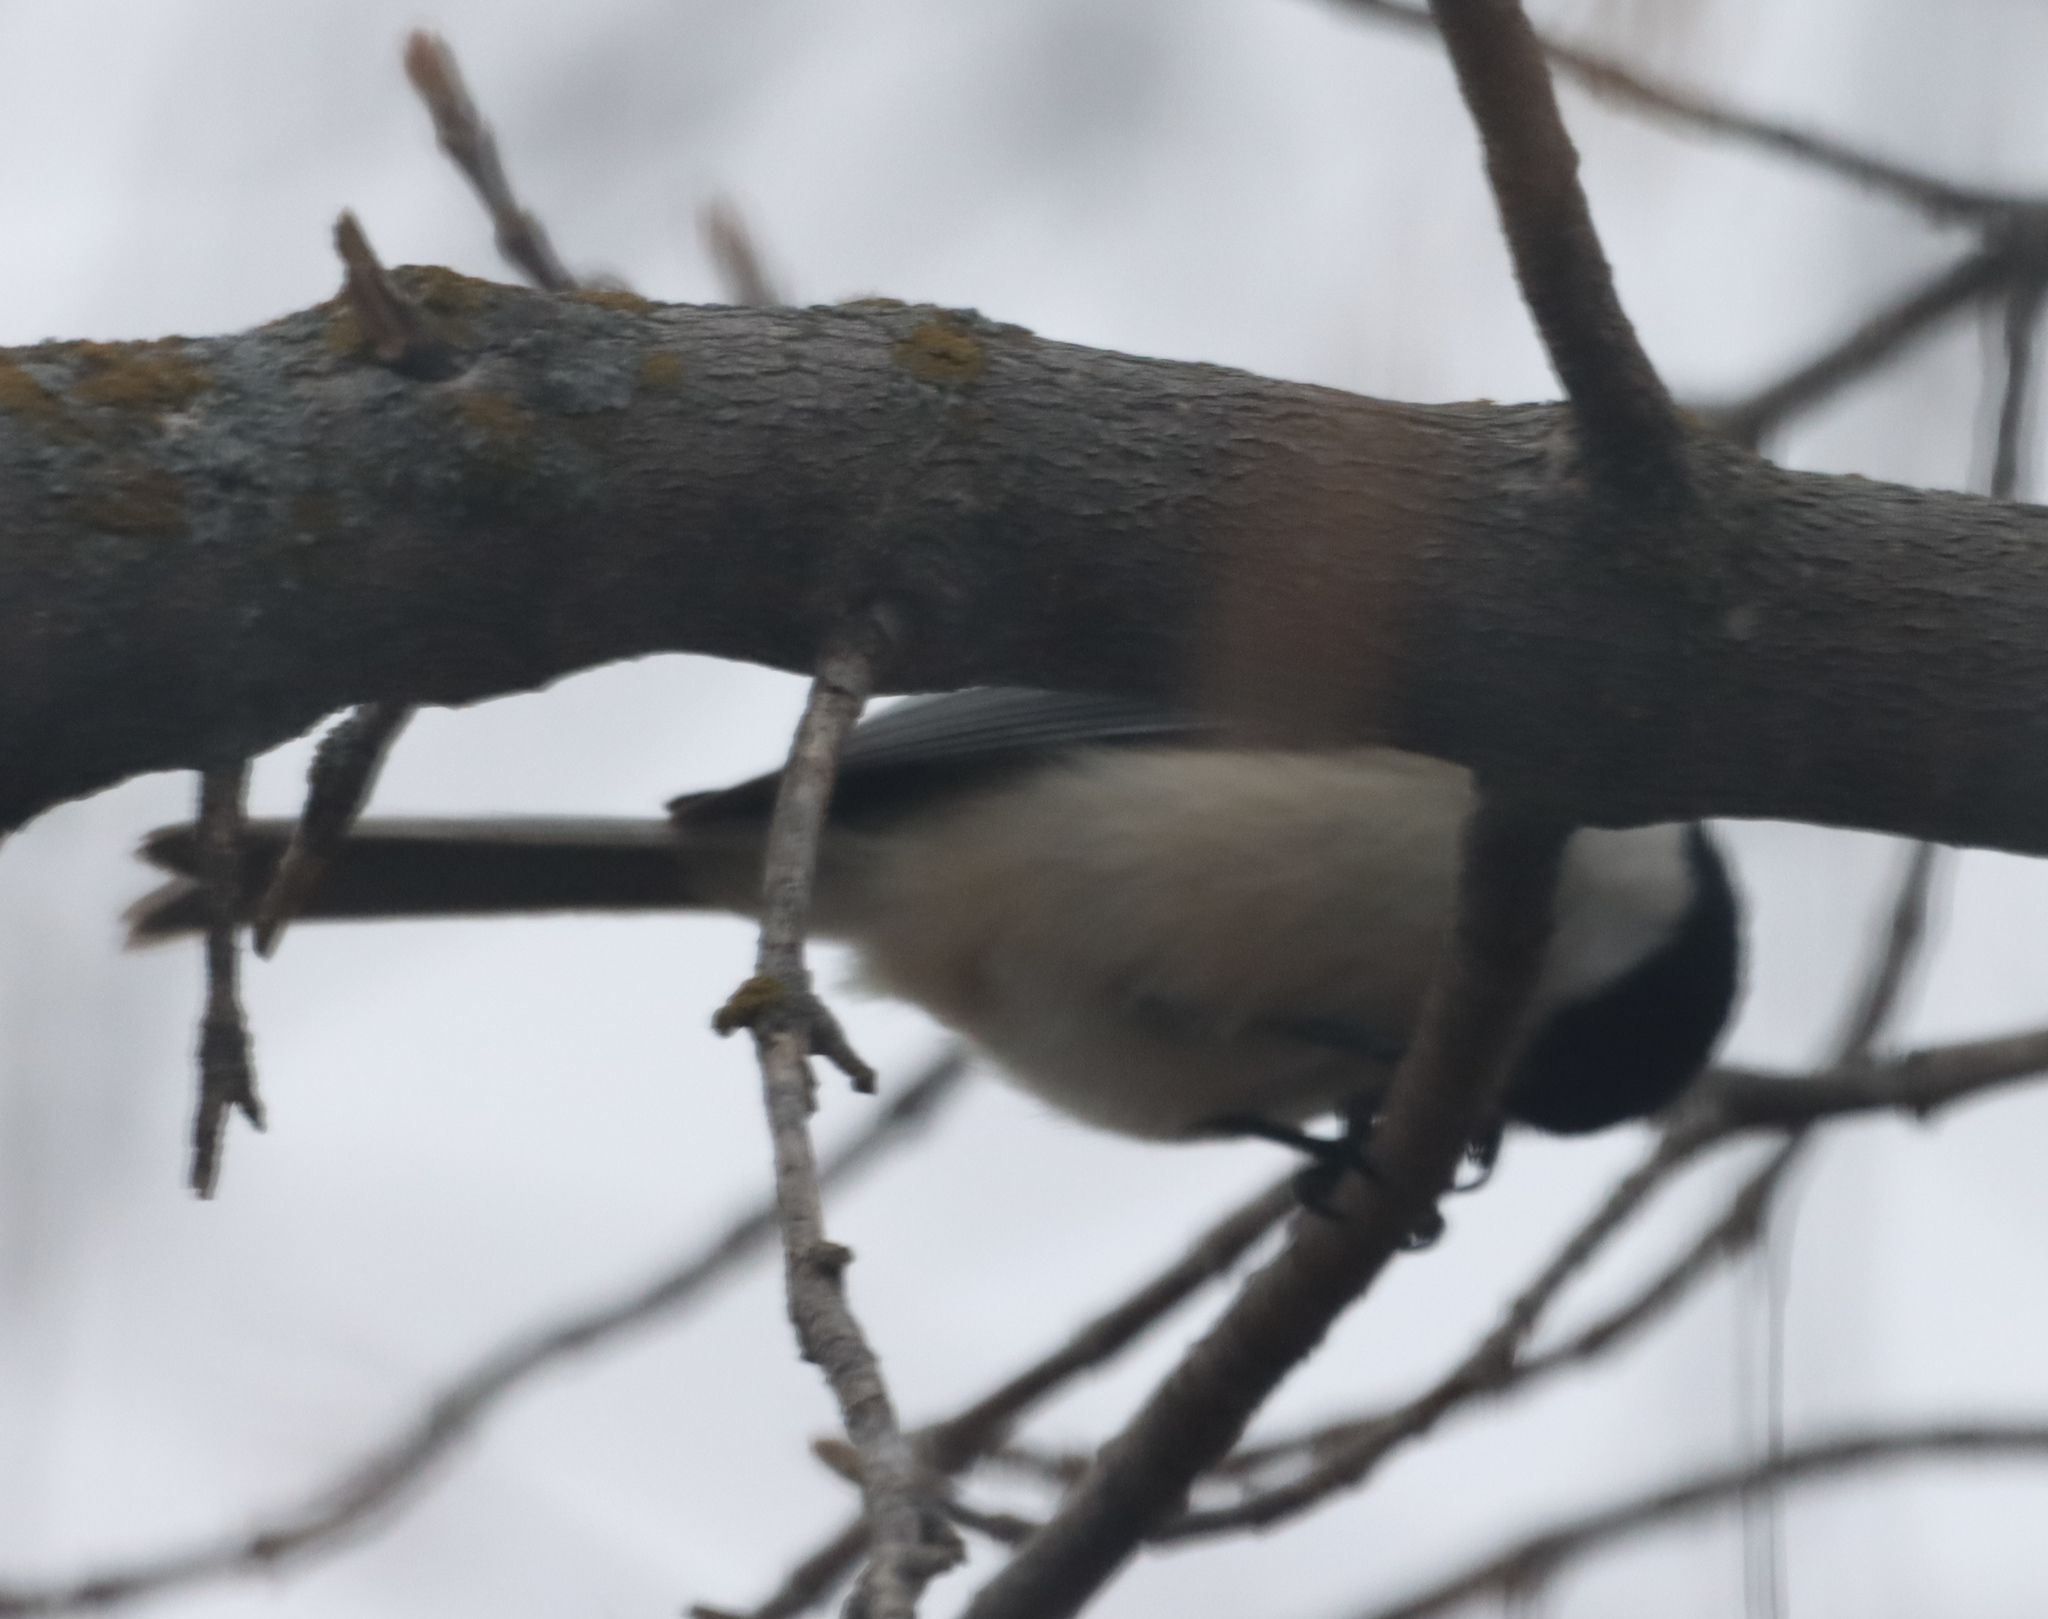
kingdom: Animalia
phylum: Chordata
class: Aves
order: Passeriformes
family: Paridae
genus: Poecile
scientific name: Poecile atricapillus
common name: Black-capped chickadee
